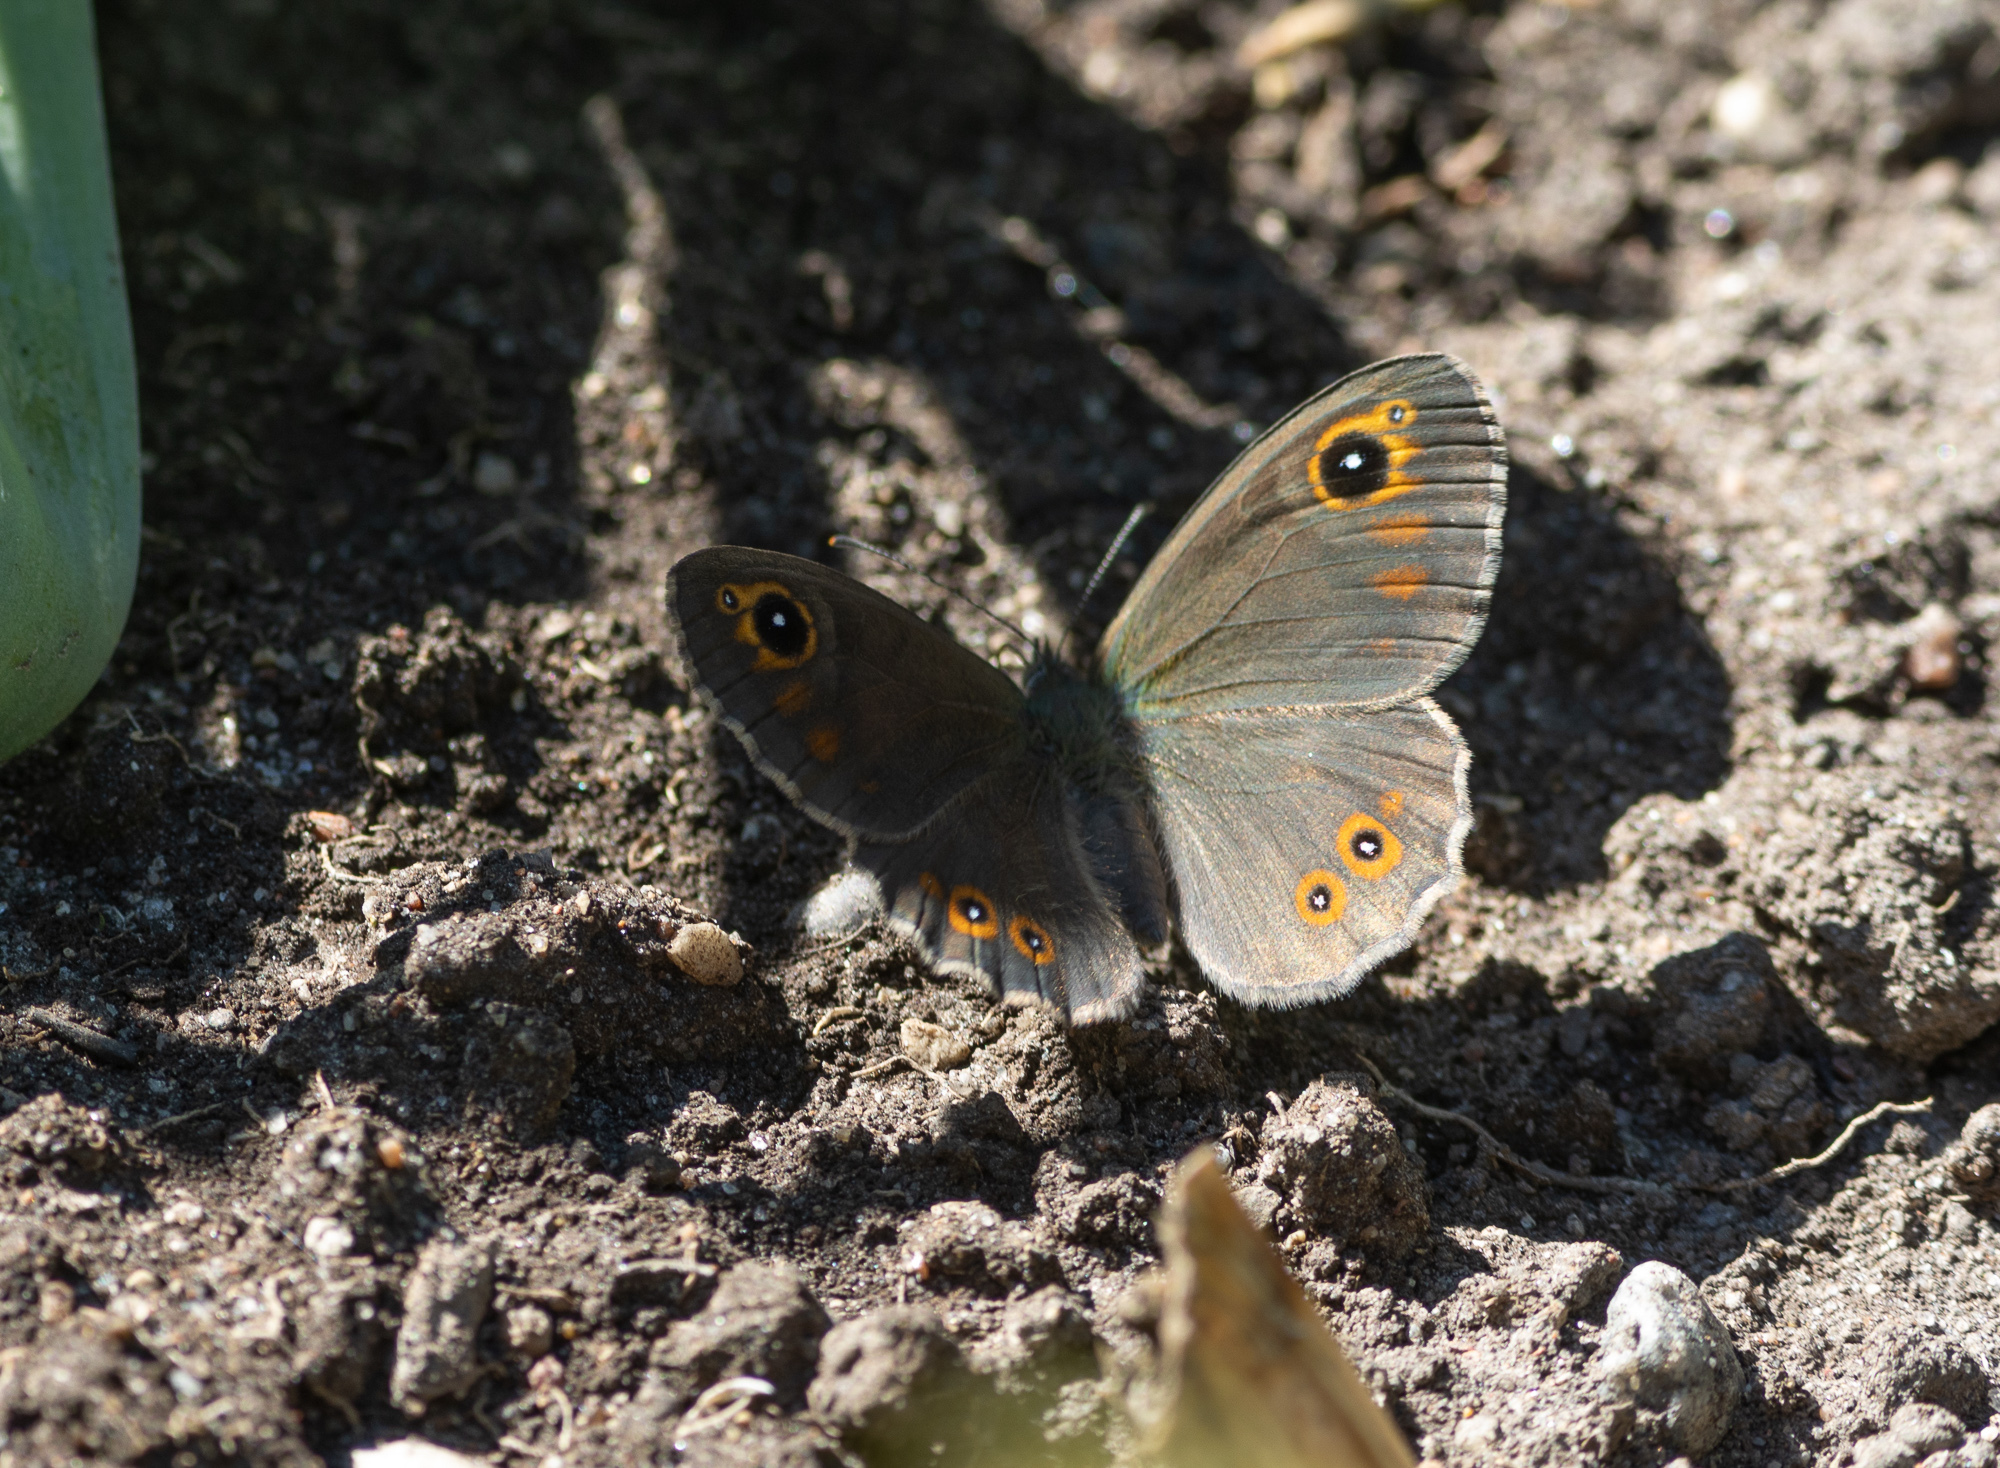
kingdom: Animalia
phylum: Arthropoda
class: Insecta
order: Lepidoptera
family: Nymphalidae
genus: Pararge
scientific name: Pararge Lasiommata maera
